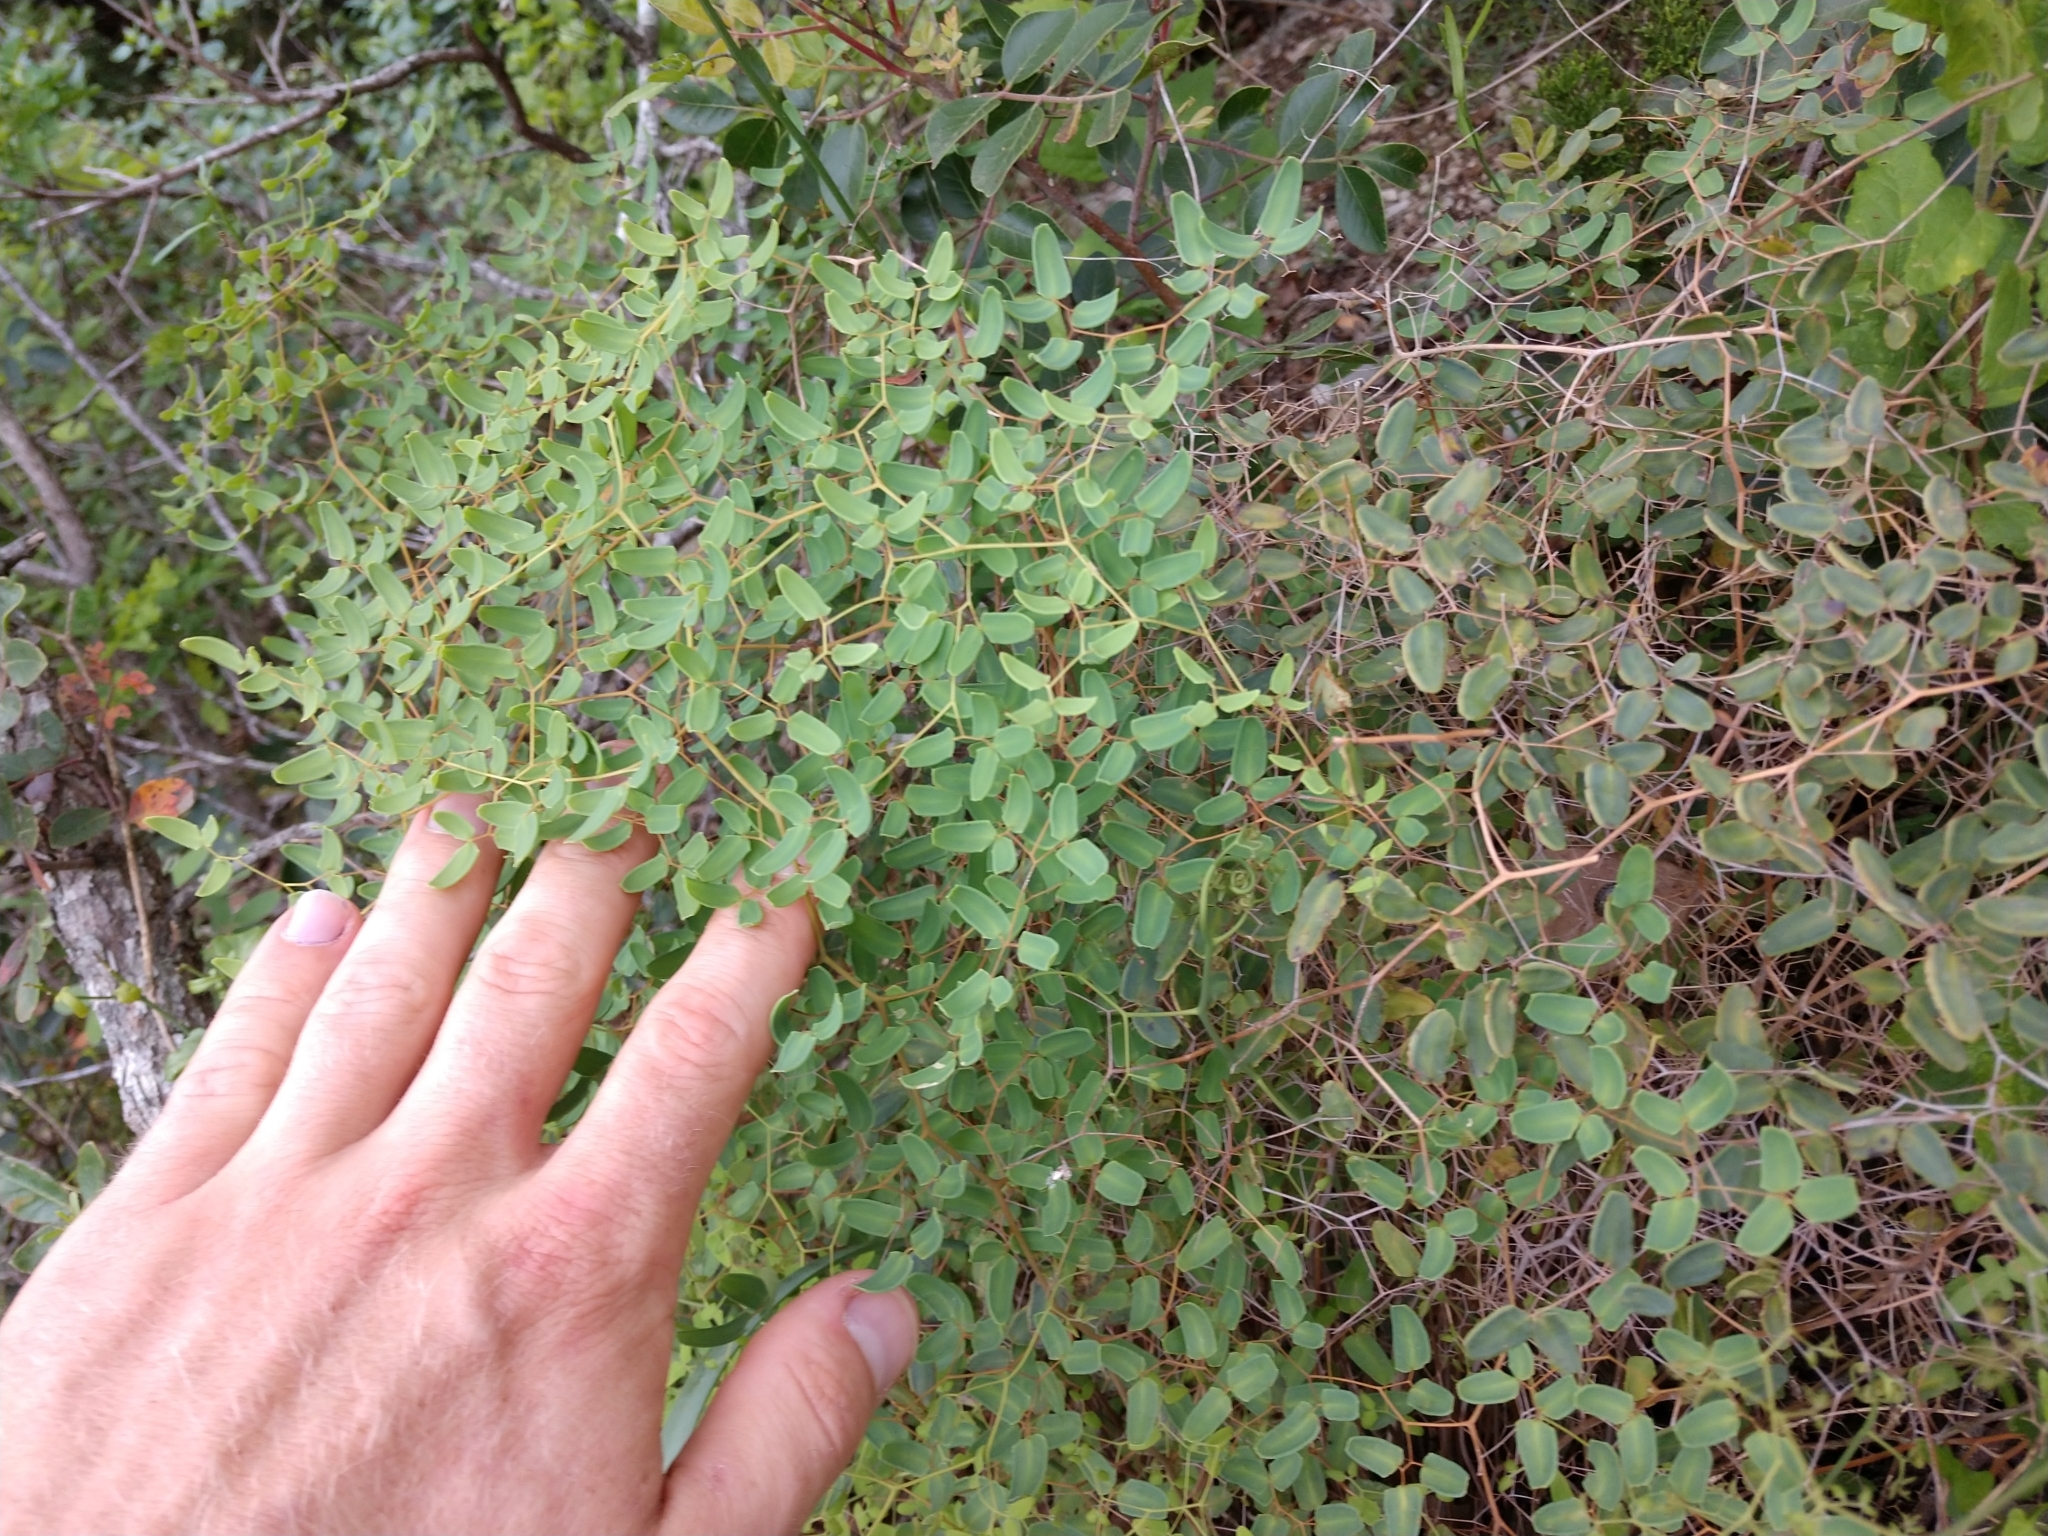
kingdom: Plantae
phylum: Tracheophyta
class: Polypodiopsida
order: Polypodiales
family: Pteridaceae
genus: Pellaea
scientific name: Pellaea ovata
